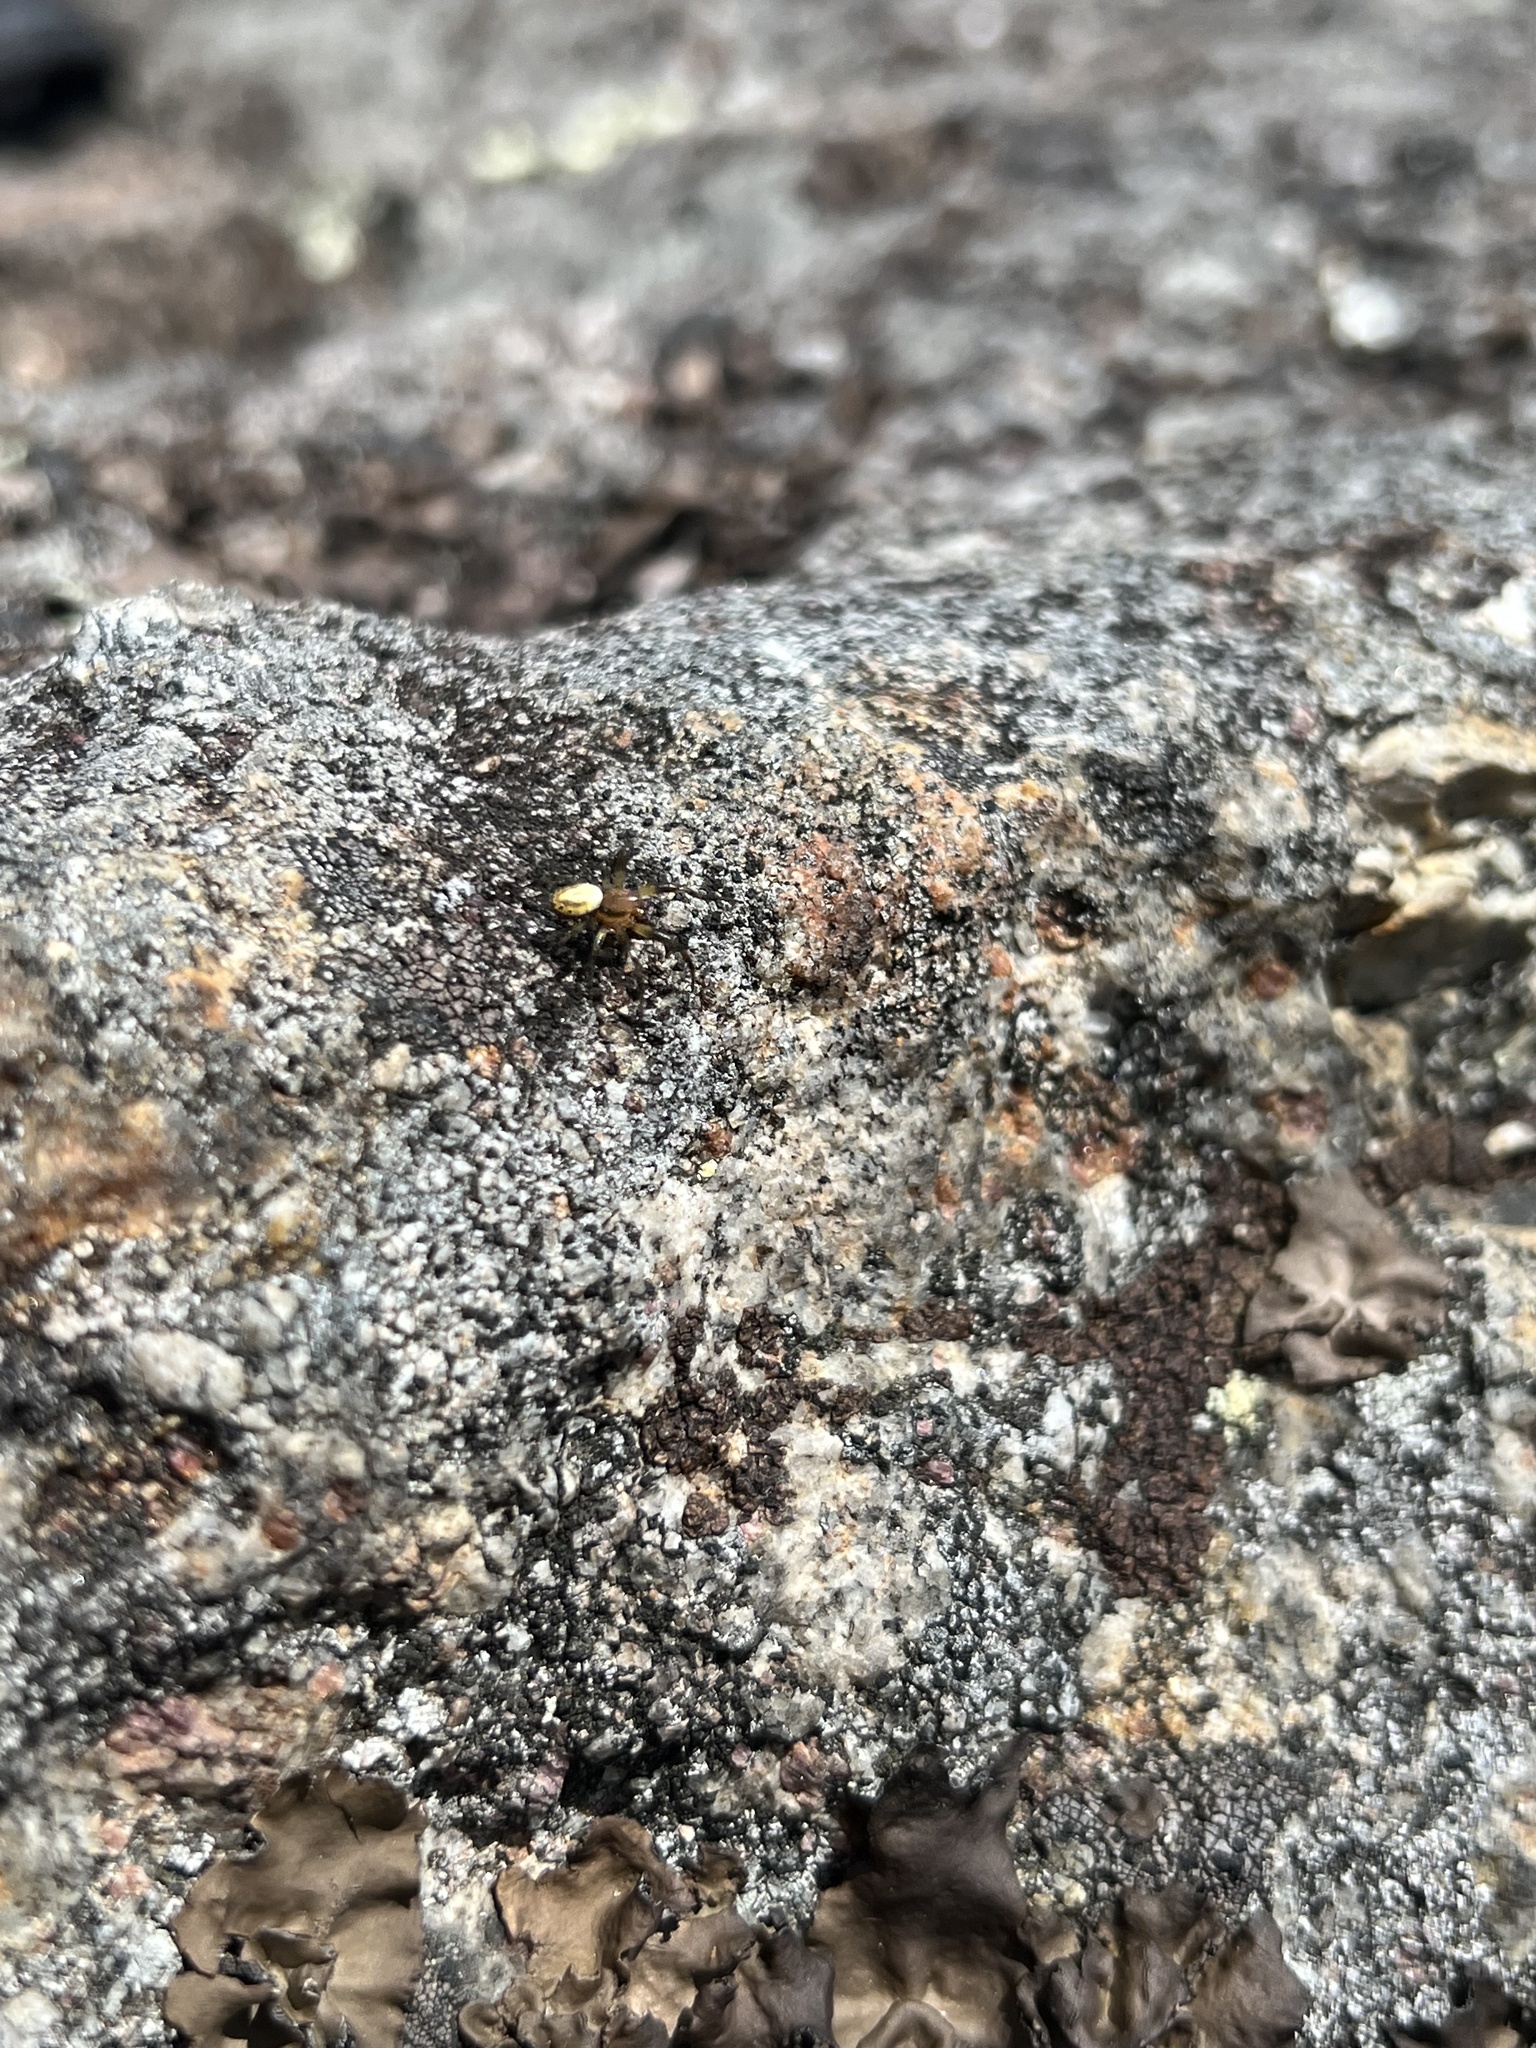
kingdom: Animalia
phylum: Arthropoda
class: Arachnida
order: Araneae
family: Araneidae
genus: Araniella
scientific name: Araniella displicata
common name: Sixspotted orb weaver
